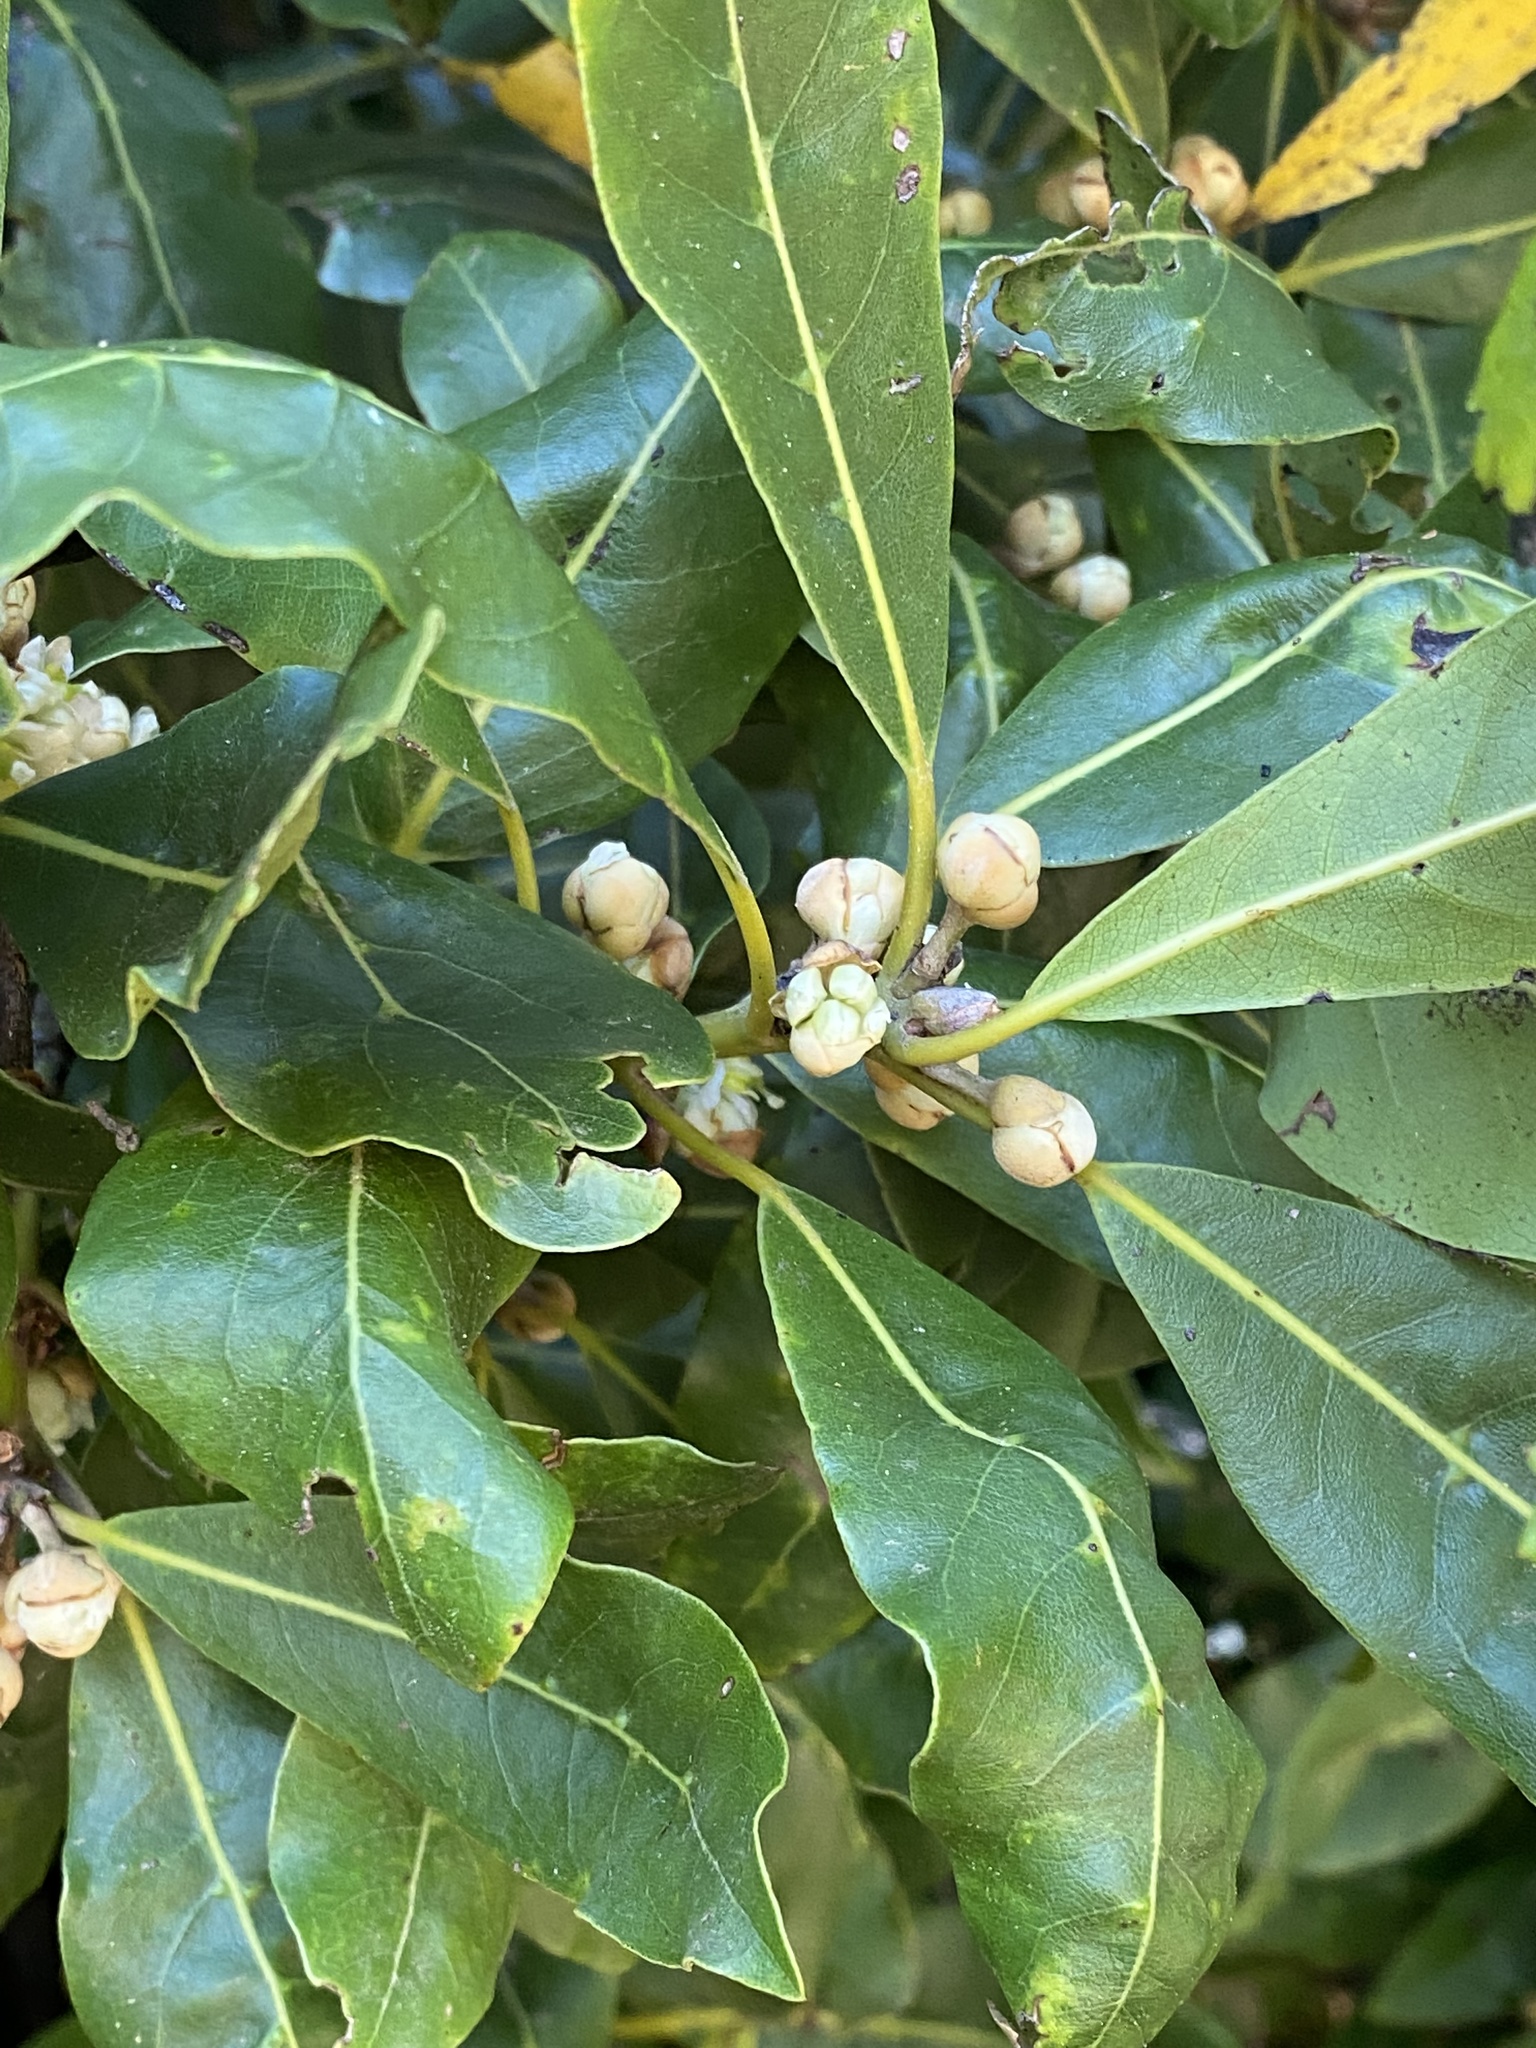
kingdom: Plantae
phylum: Tracheophyta
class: Magnoliopsida
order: Laurales
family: Lauraceae
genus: Laurus
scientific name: Laurus novocanariensis
